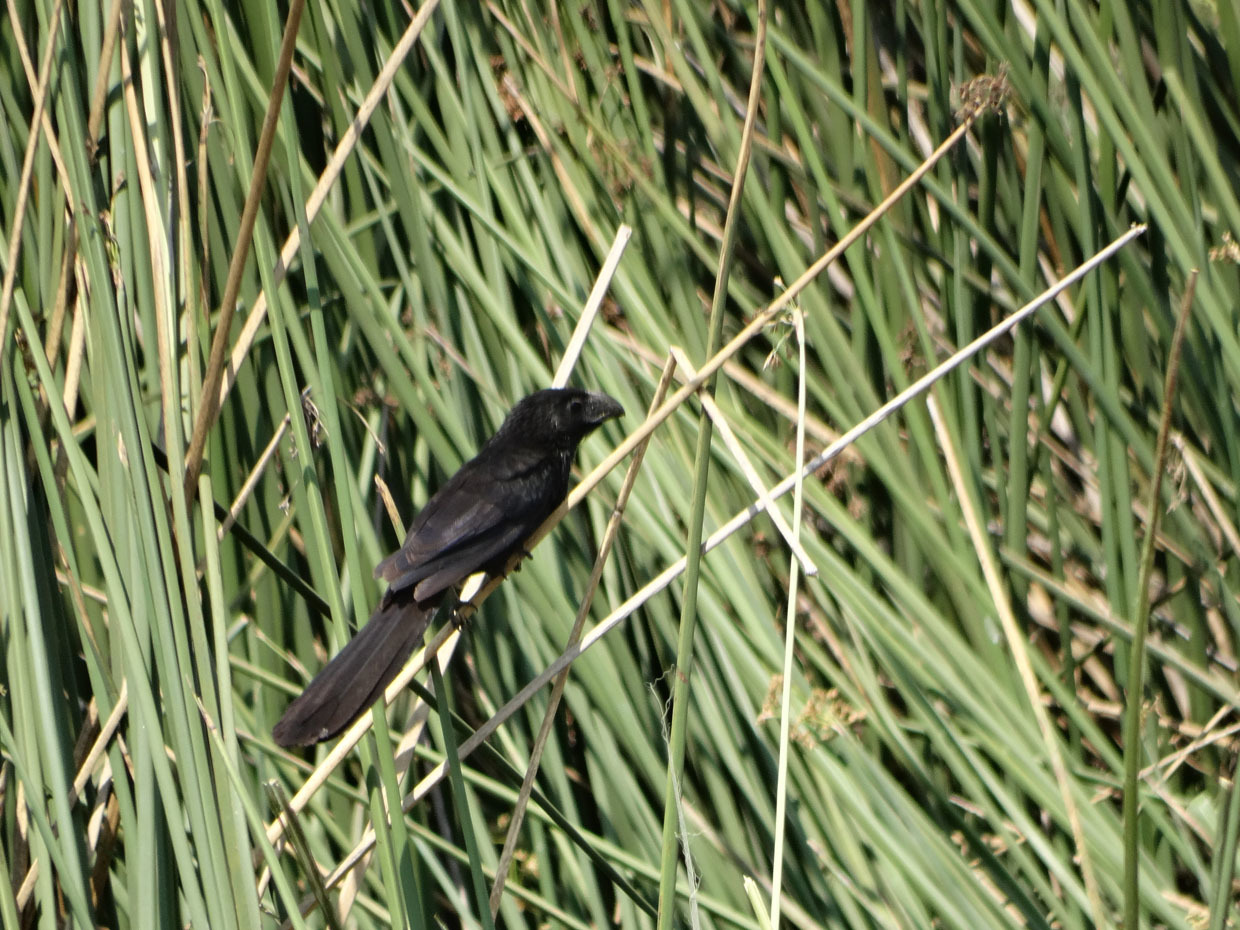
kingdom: Animalia
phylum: Chordata
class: Aves
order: Cuculiformes
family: Cuculidae
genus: Crotophaga
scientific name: Crotophaga sulcirostris
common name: Groove-billed ani
